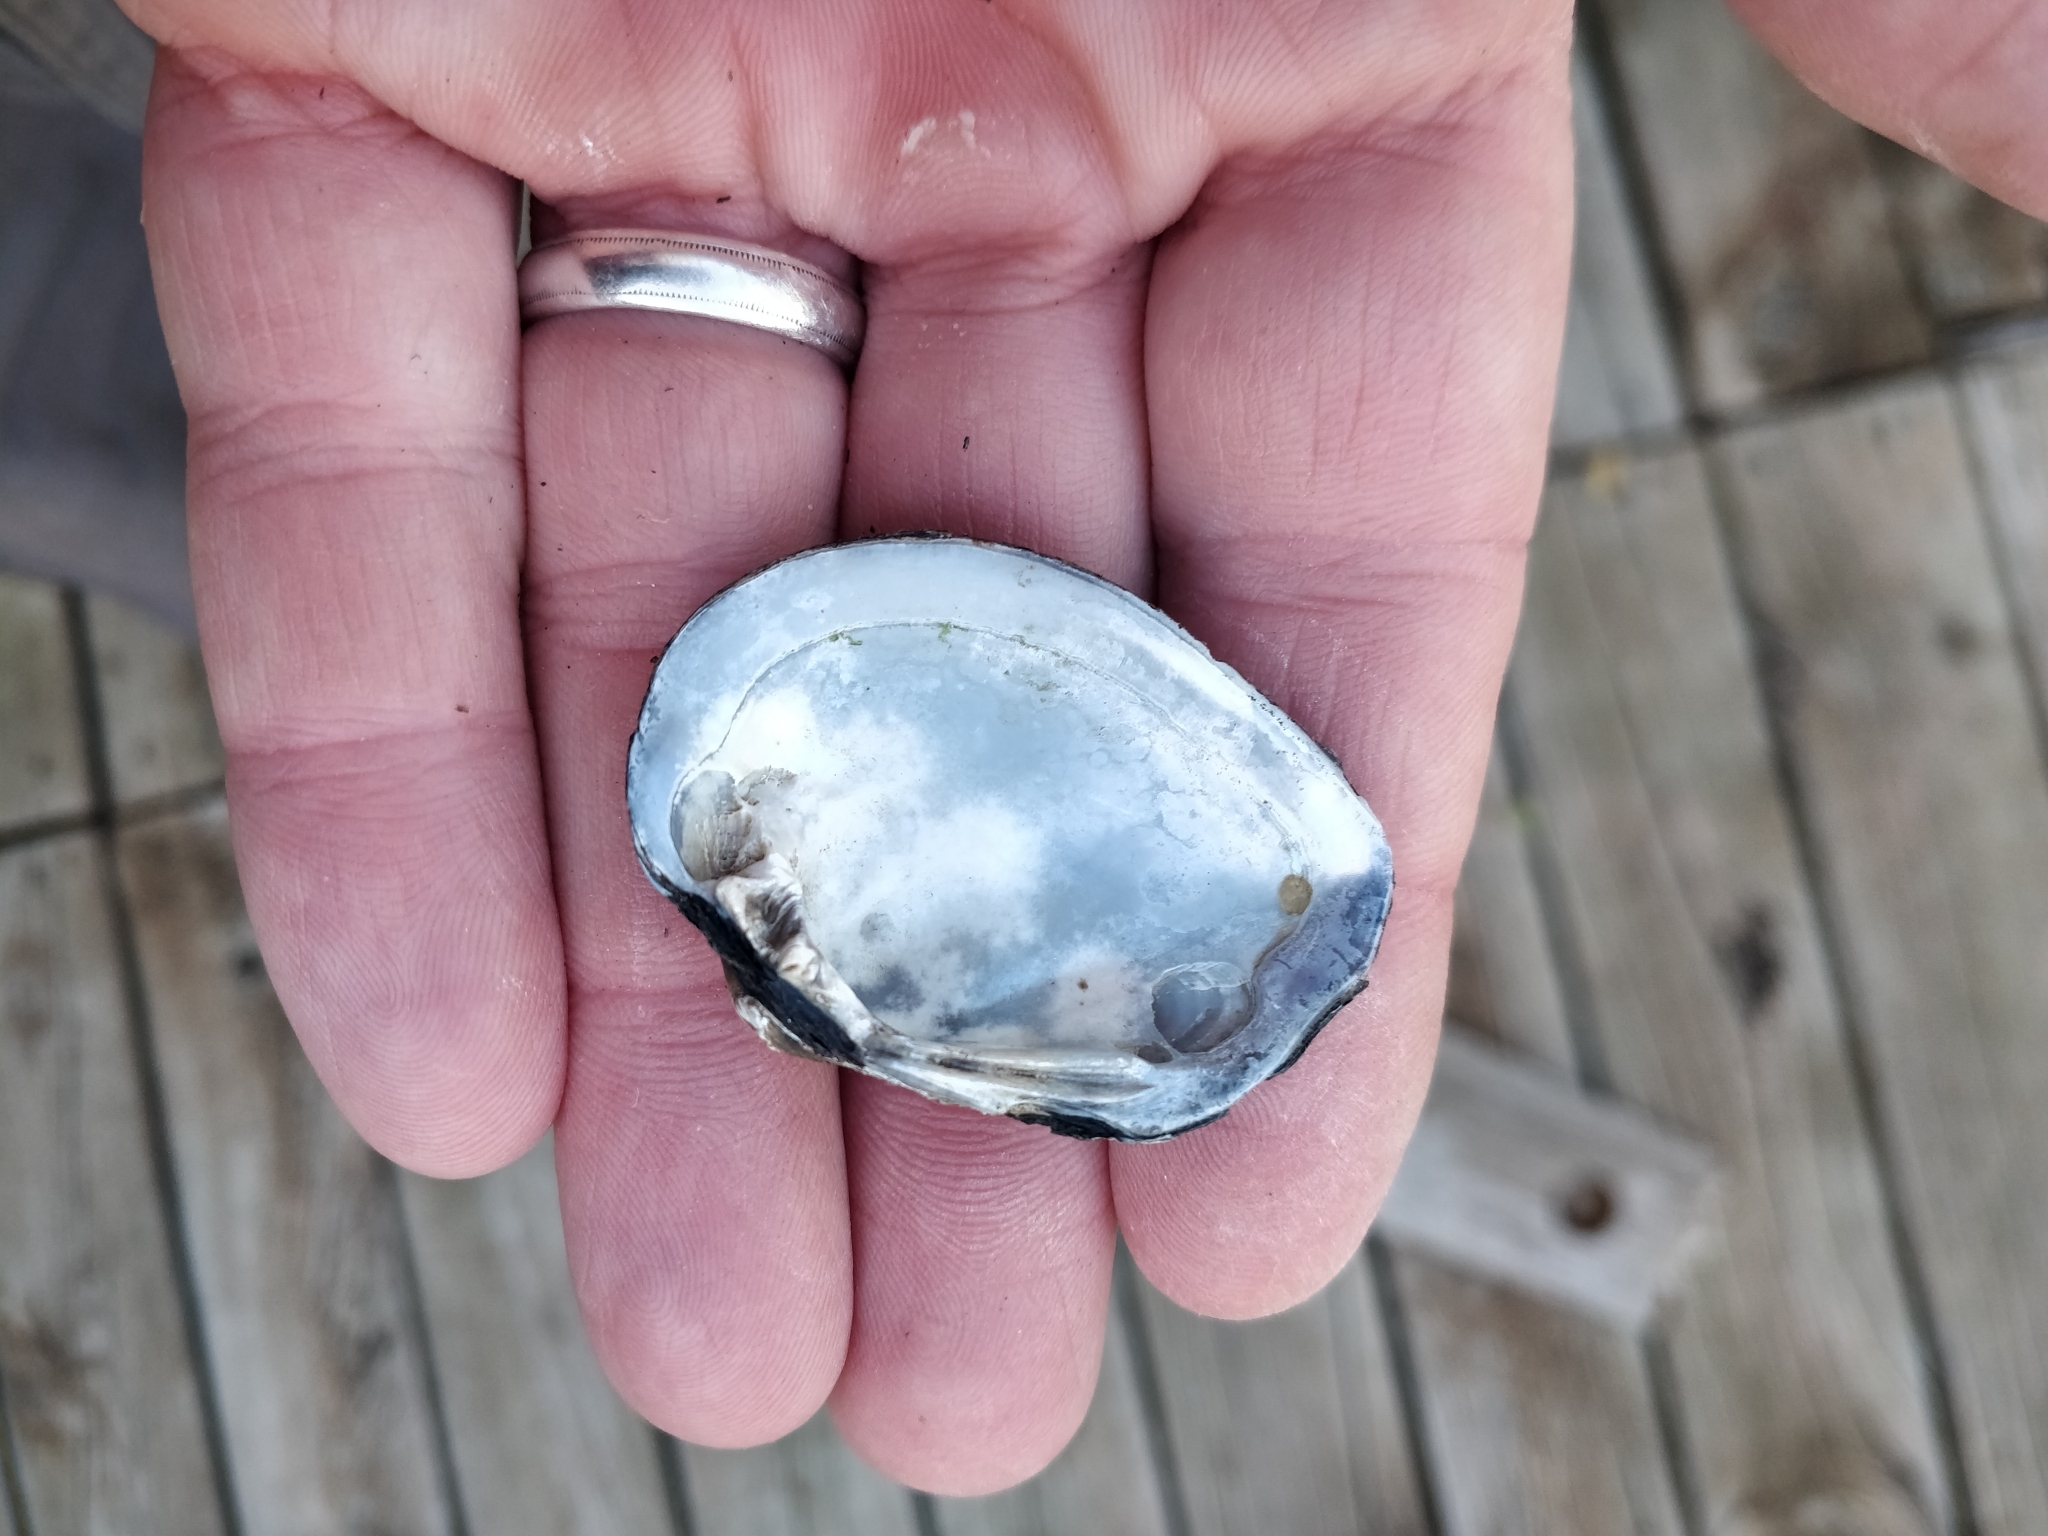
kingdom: Animalia
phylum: Mollusca
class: Bivalvia
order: Unionida
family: Unionidae
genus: Fusconaia
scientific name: Fusconaia flava
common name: Wabash pigtoe
